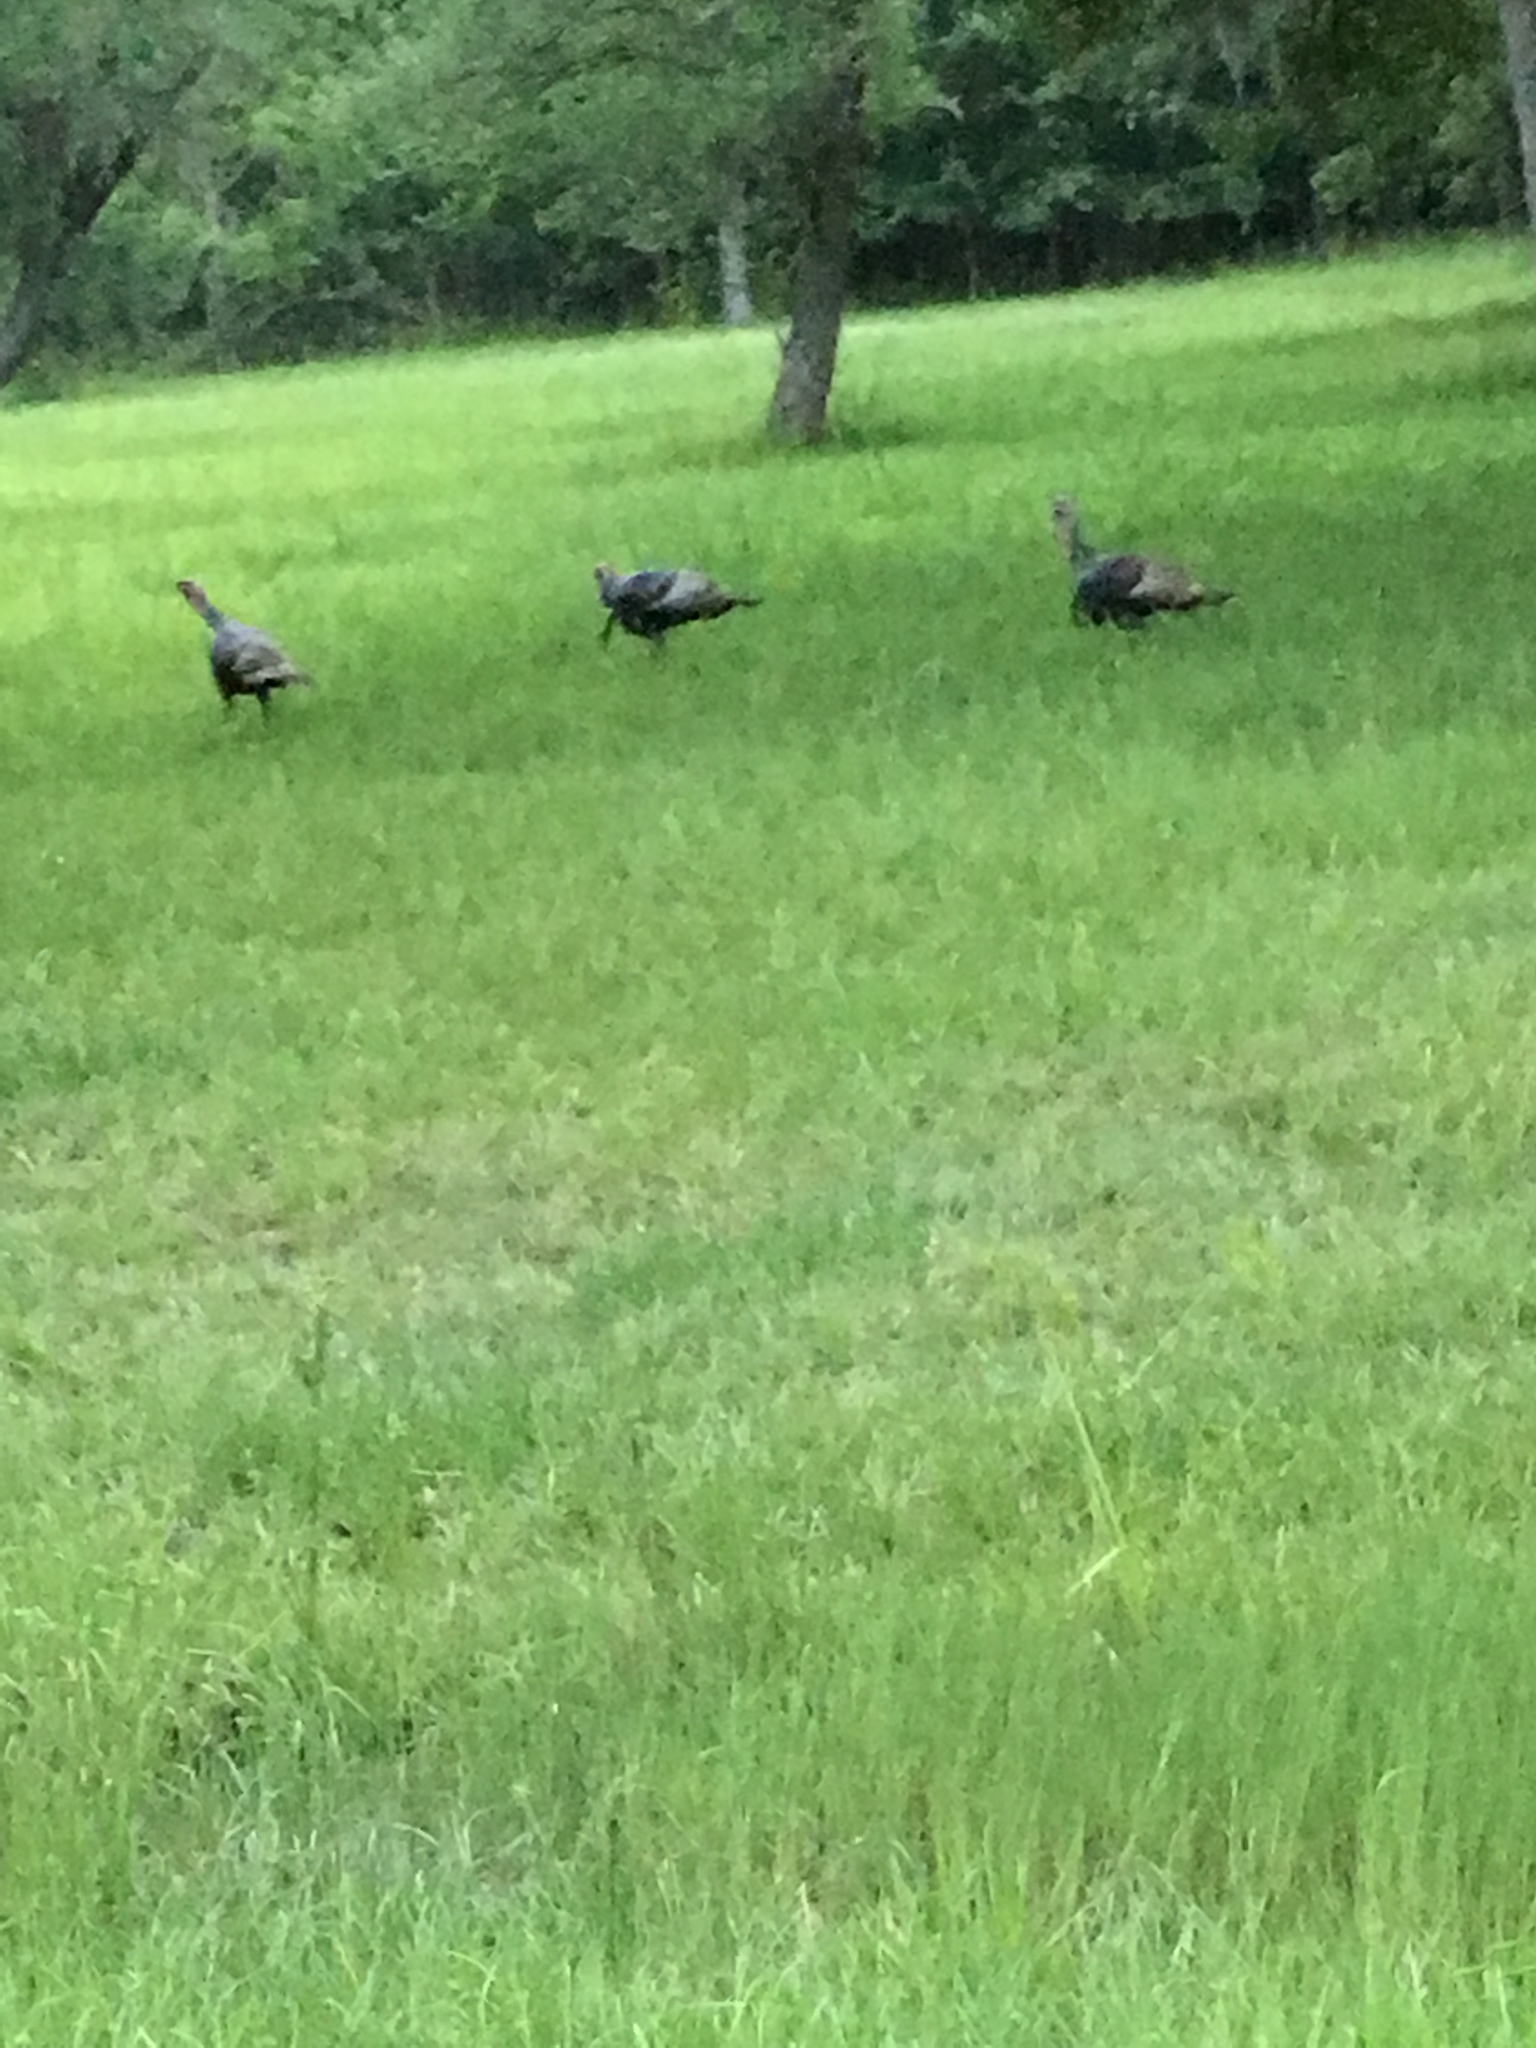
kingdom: Animalia
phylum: Chordata
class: Aves
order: Galliformes
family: Phasianidae
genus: Meleagris
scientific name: Meleagris gallopavo
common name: Wild turkey
